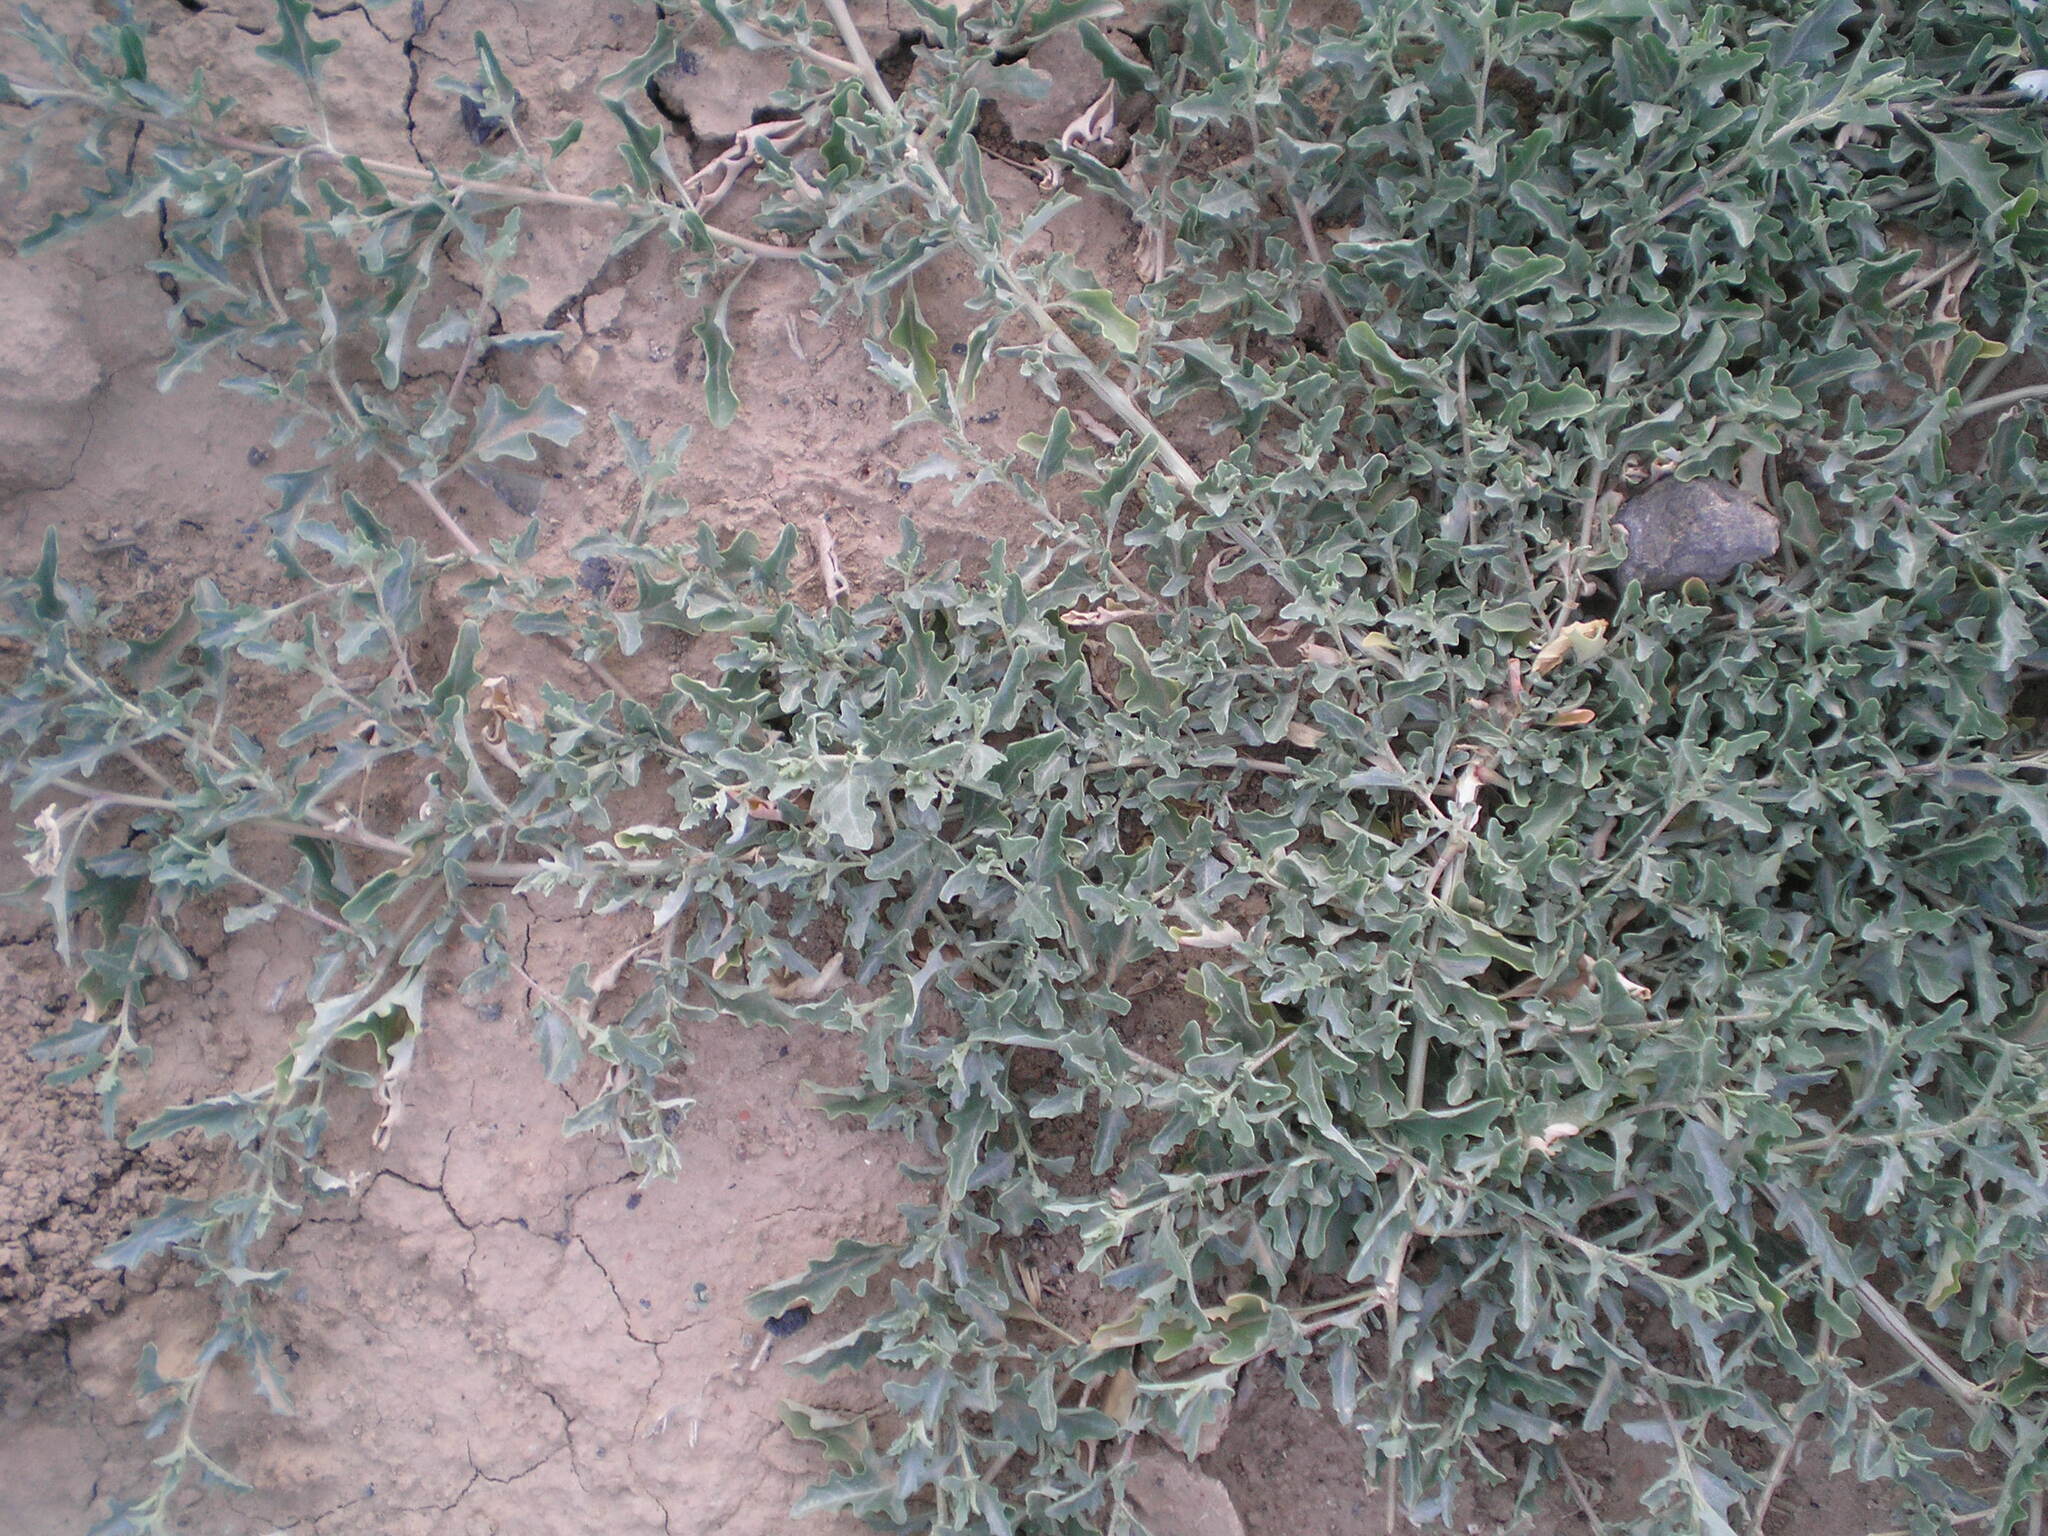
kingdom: Plantae
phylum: Tracheophyta
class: Magnoliopsida
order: Caryophyllales
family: Amaranthaceae
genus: Atriplex
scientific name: Atriplex tatarica
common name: Tatarian orache
